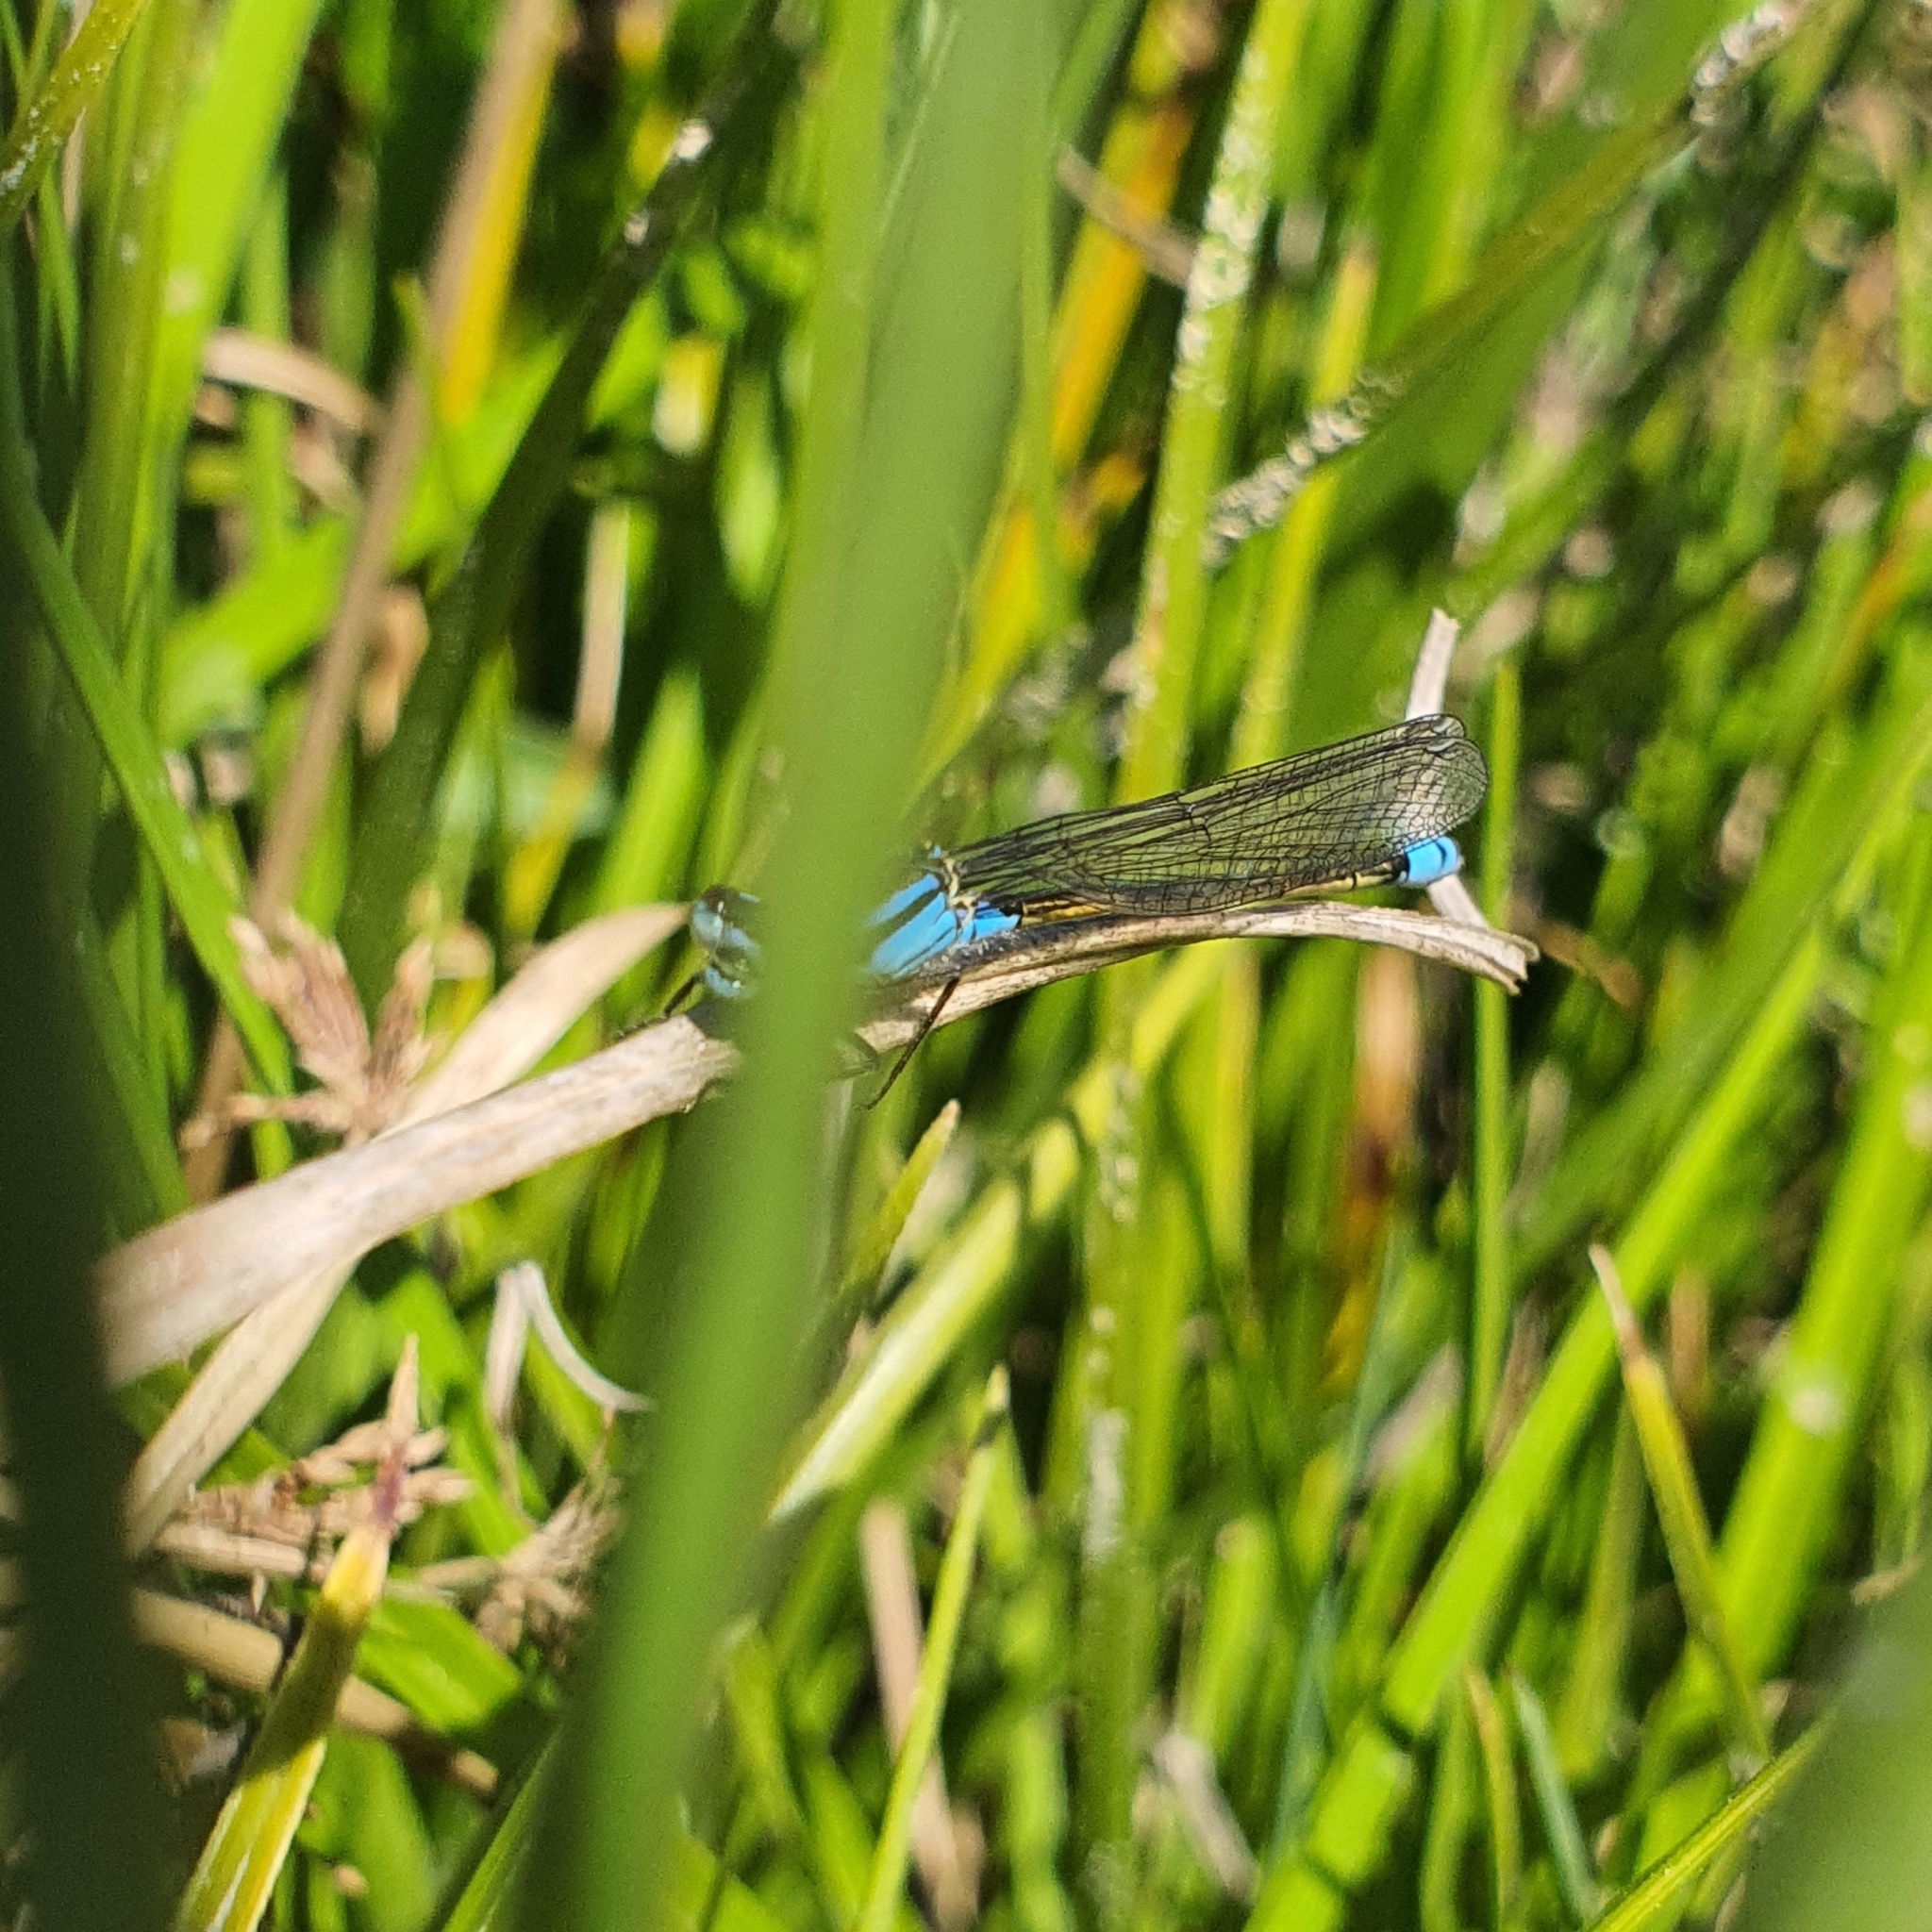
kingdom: Animalia
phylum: Arthropoda
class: Insecta
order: Odonata
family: Coenagrionidae
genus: Ischnura
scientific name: Ischnura heterosticta
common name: Common bluetail
